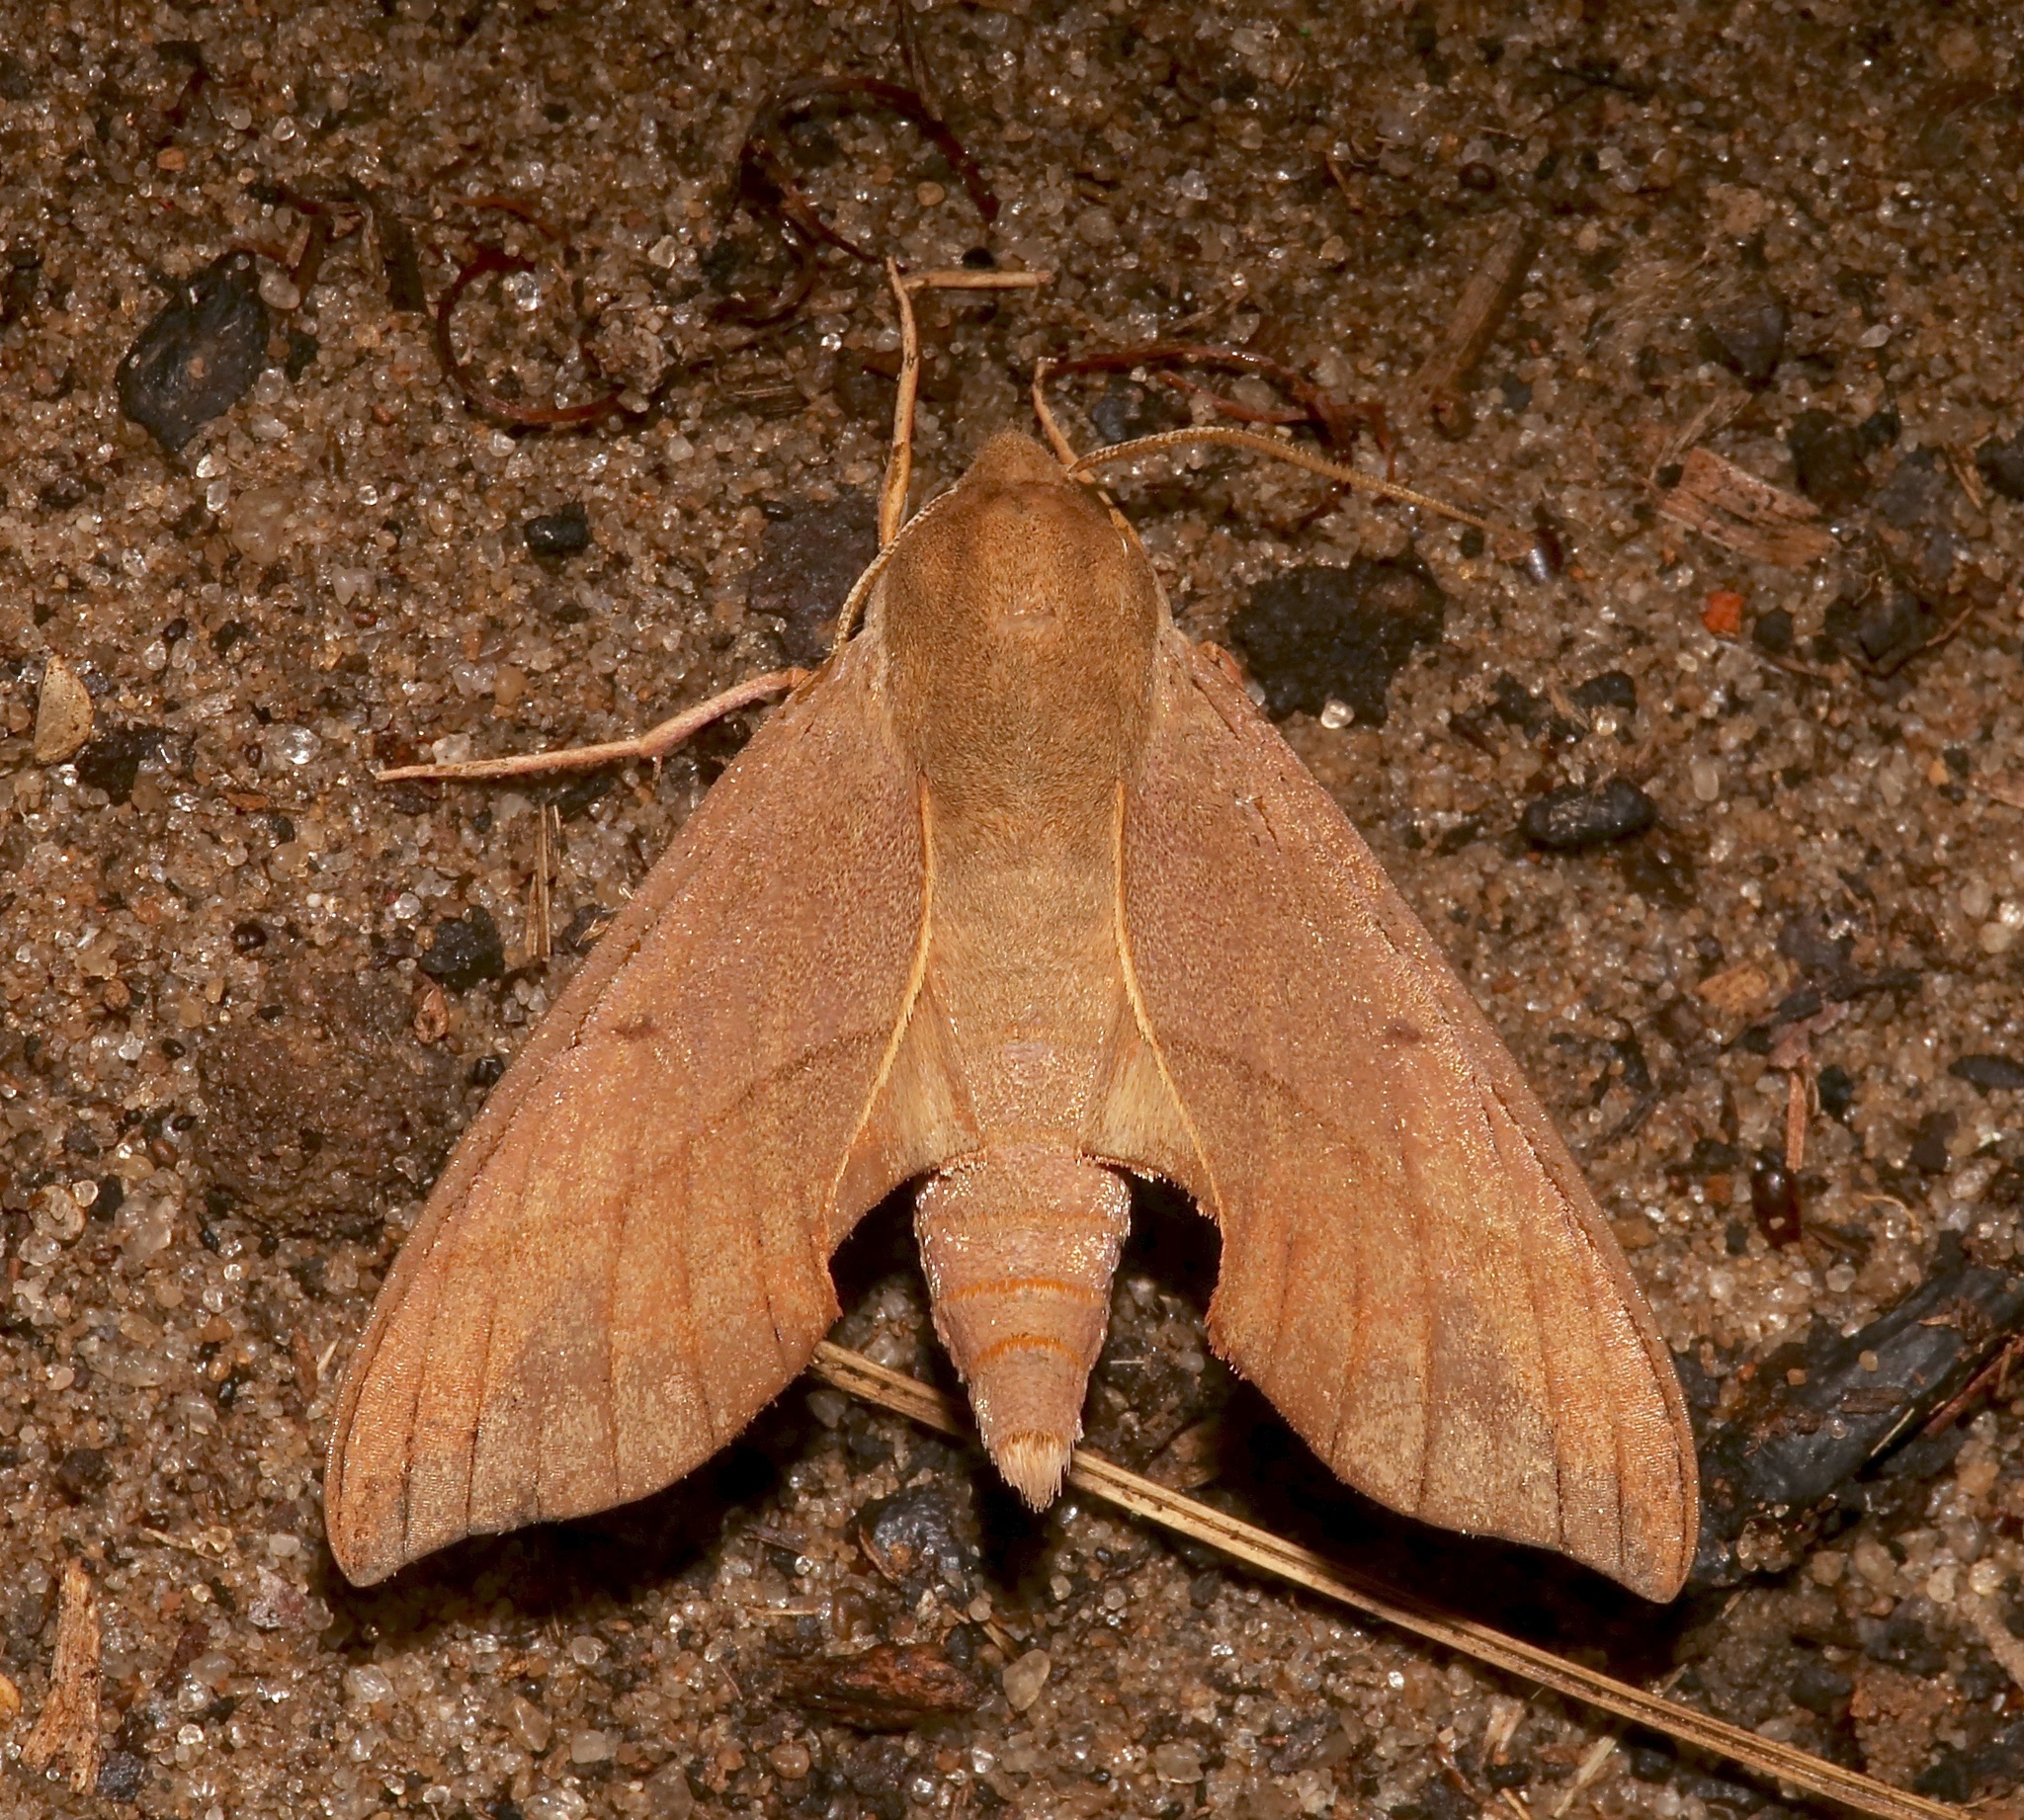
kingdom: Animalia
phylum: Arthropoda
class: Insecta
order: Lepidoptera
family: Sphingidae
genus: Darapsa
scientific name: Darapsa myron
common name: Hog sphinx
